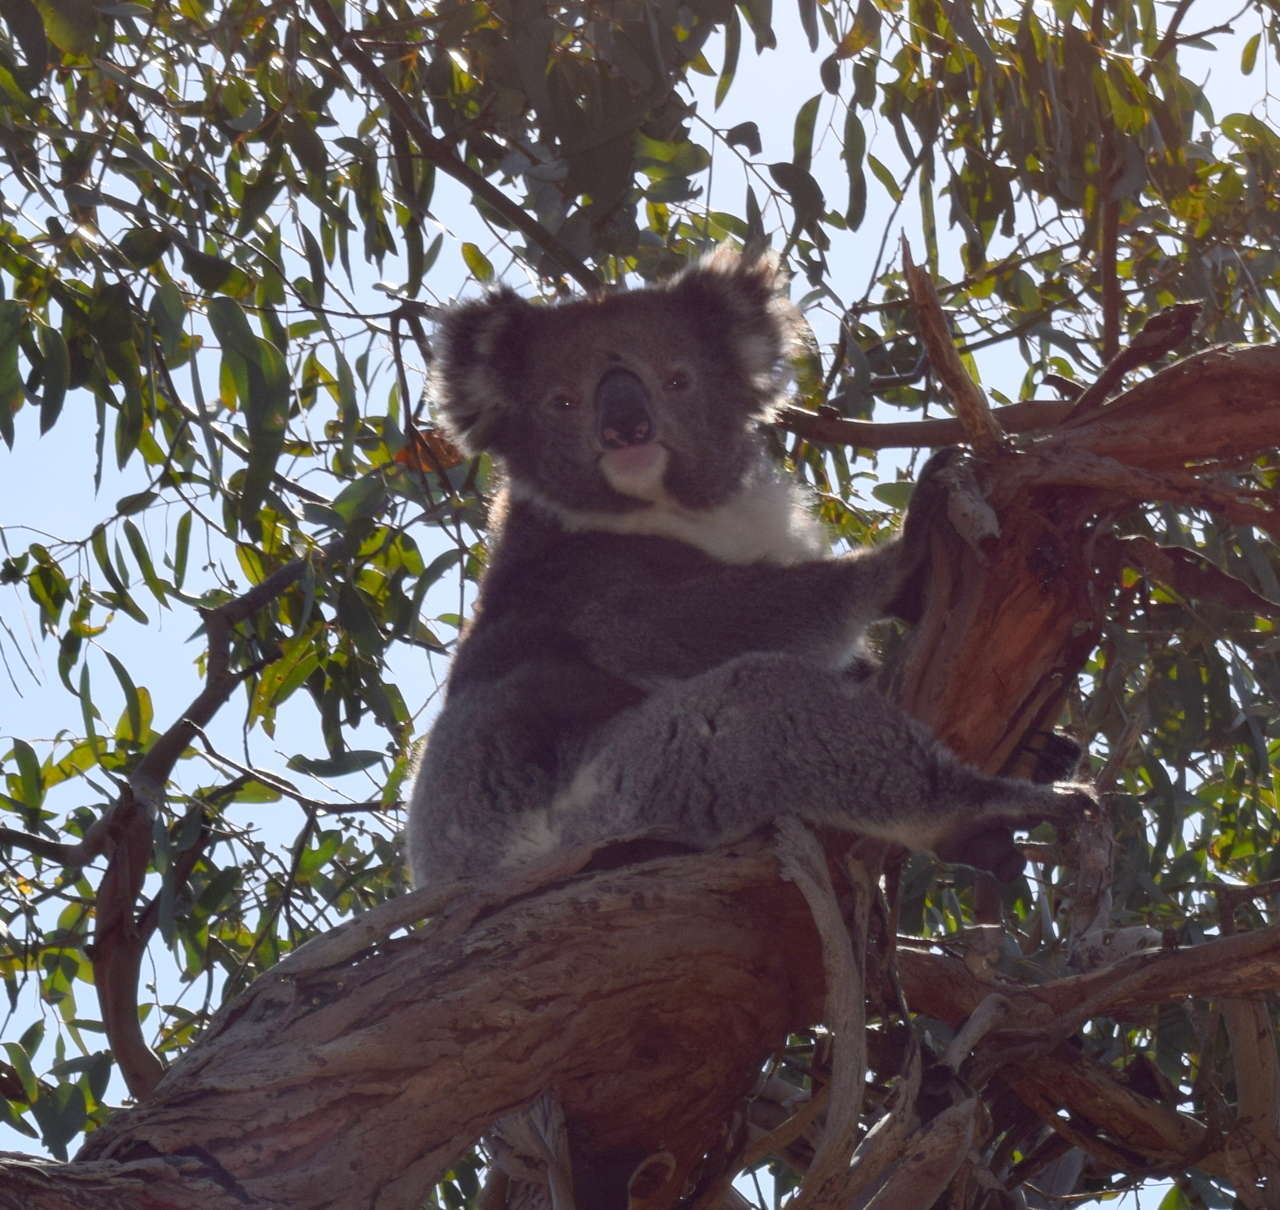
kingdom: Animalia
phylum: Chordata
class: Mammalia
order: Diprotodontia
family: Phascolarctidae
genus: Phascolarctos
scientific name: Phascolarctos cinereus
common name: Koala
